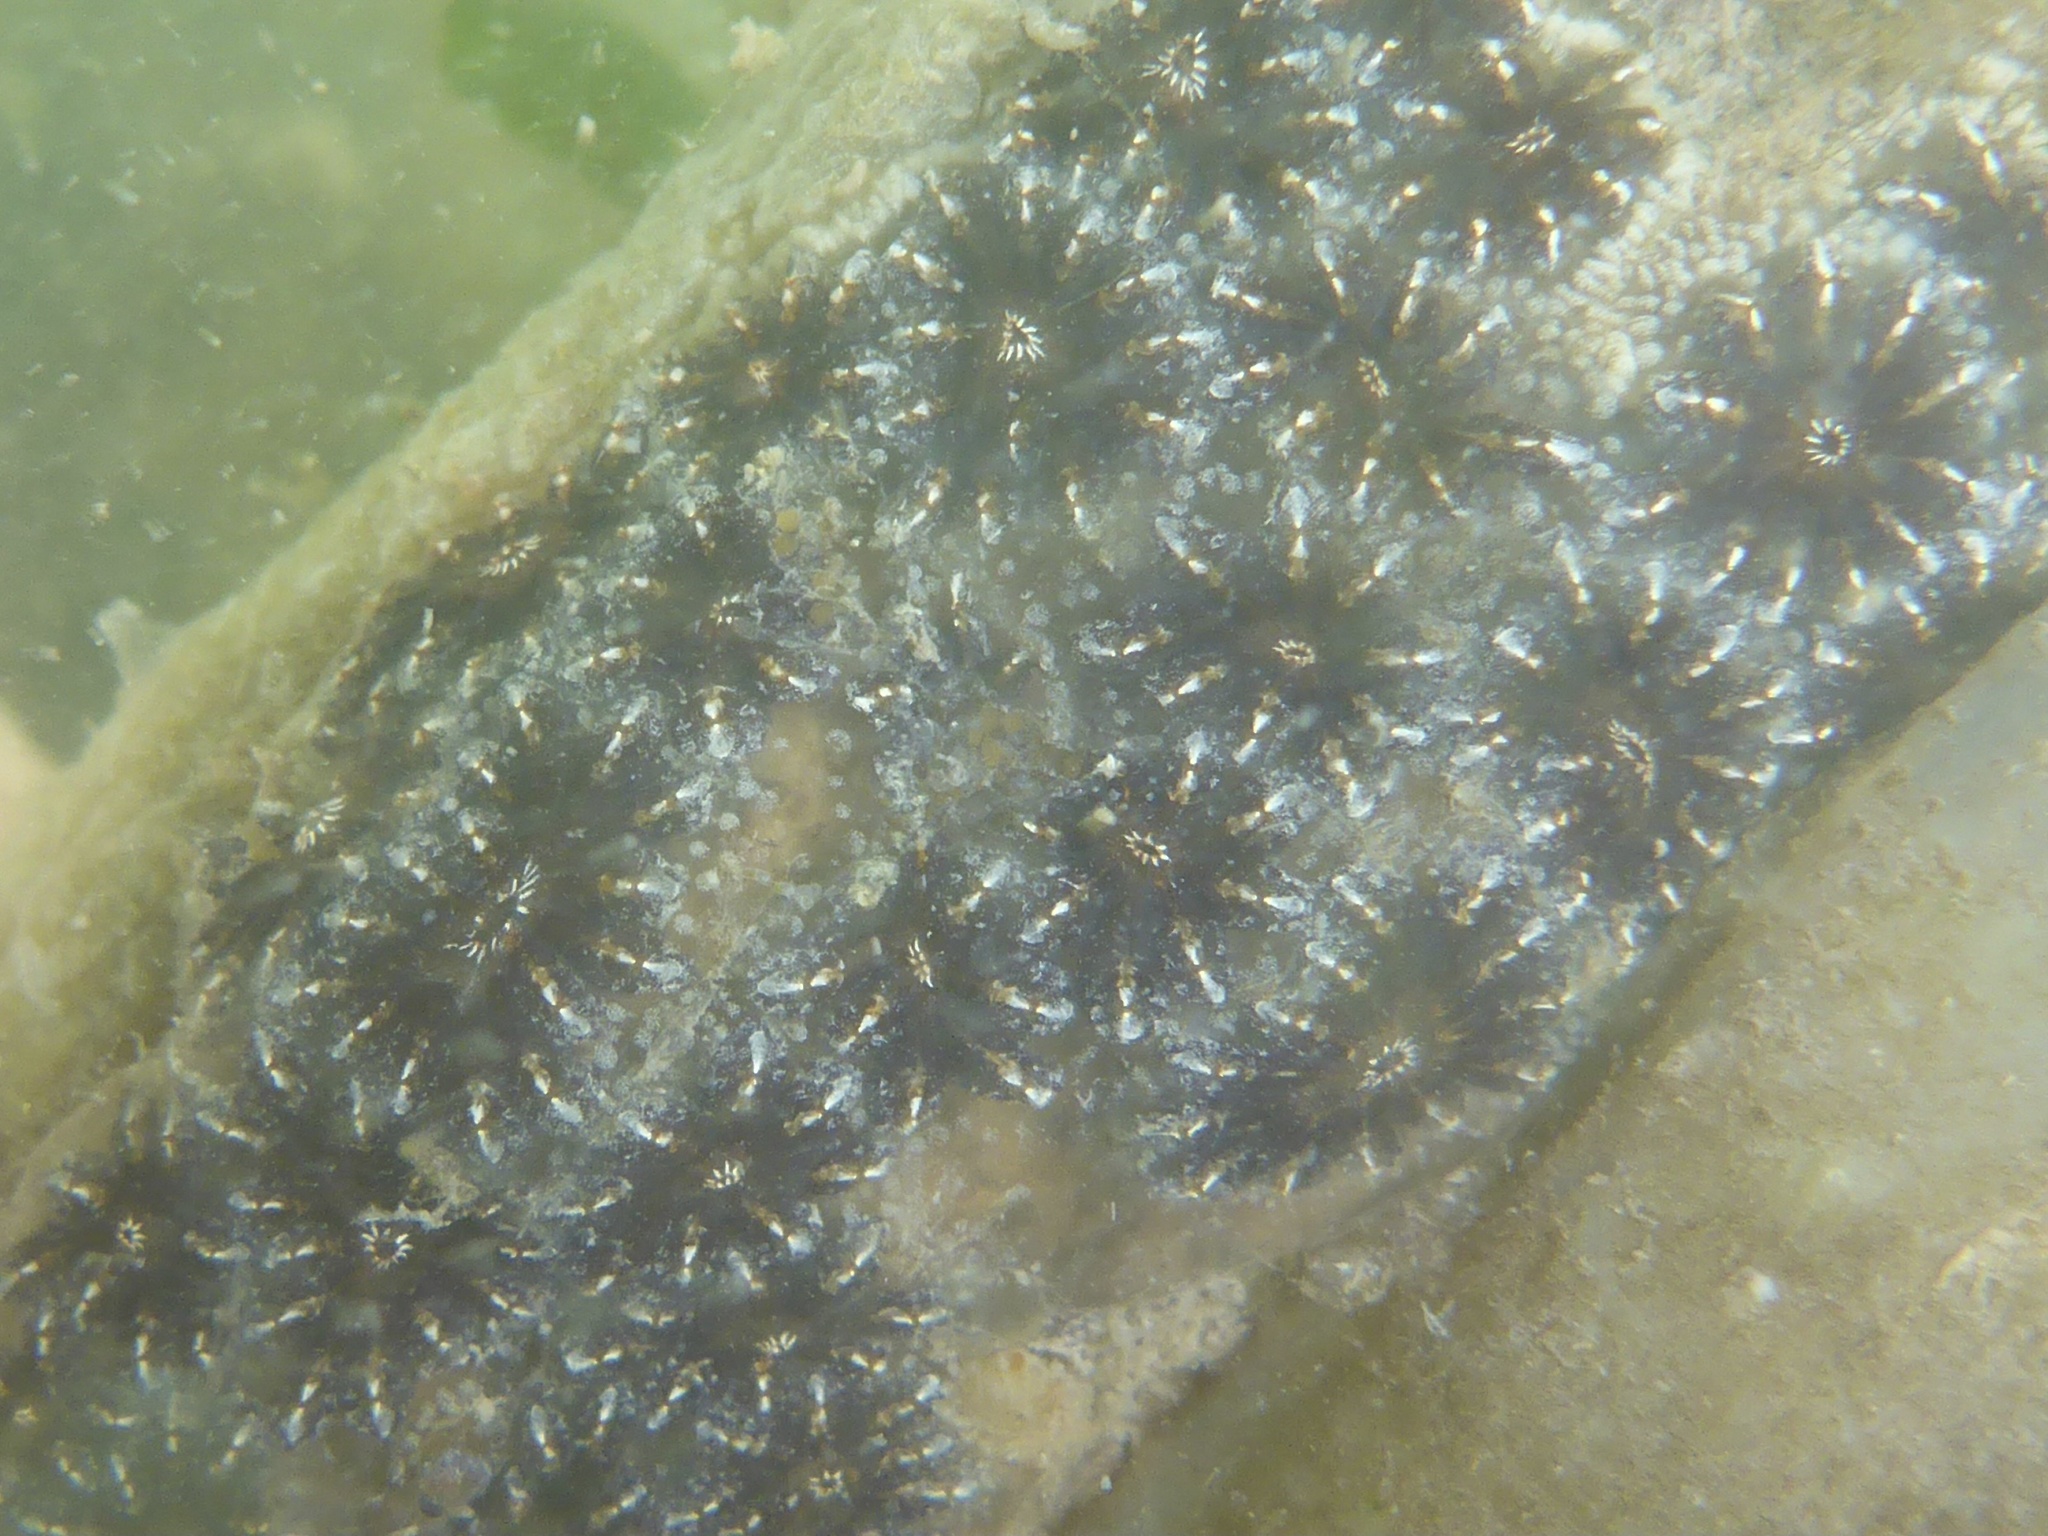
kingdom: Animalia
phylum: Chordata
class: Ascidiacea
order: Stolidobranchia
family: Styelidae
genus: Botryllus
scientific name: Botryllus schlosseri
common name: Golden star tunicate
